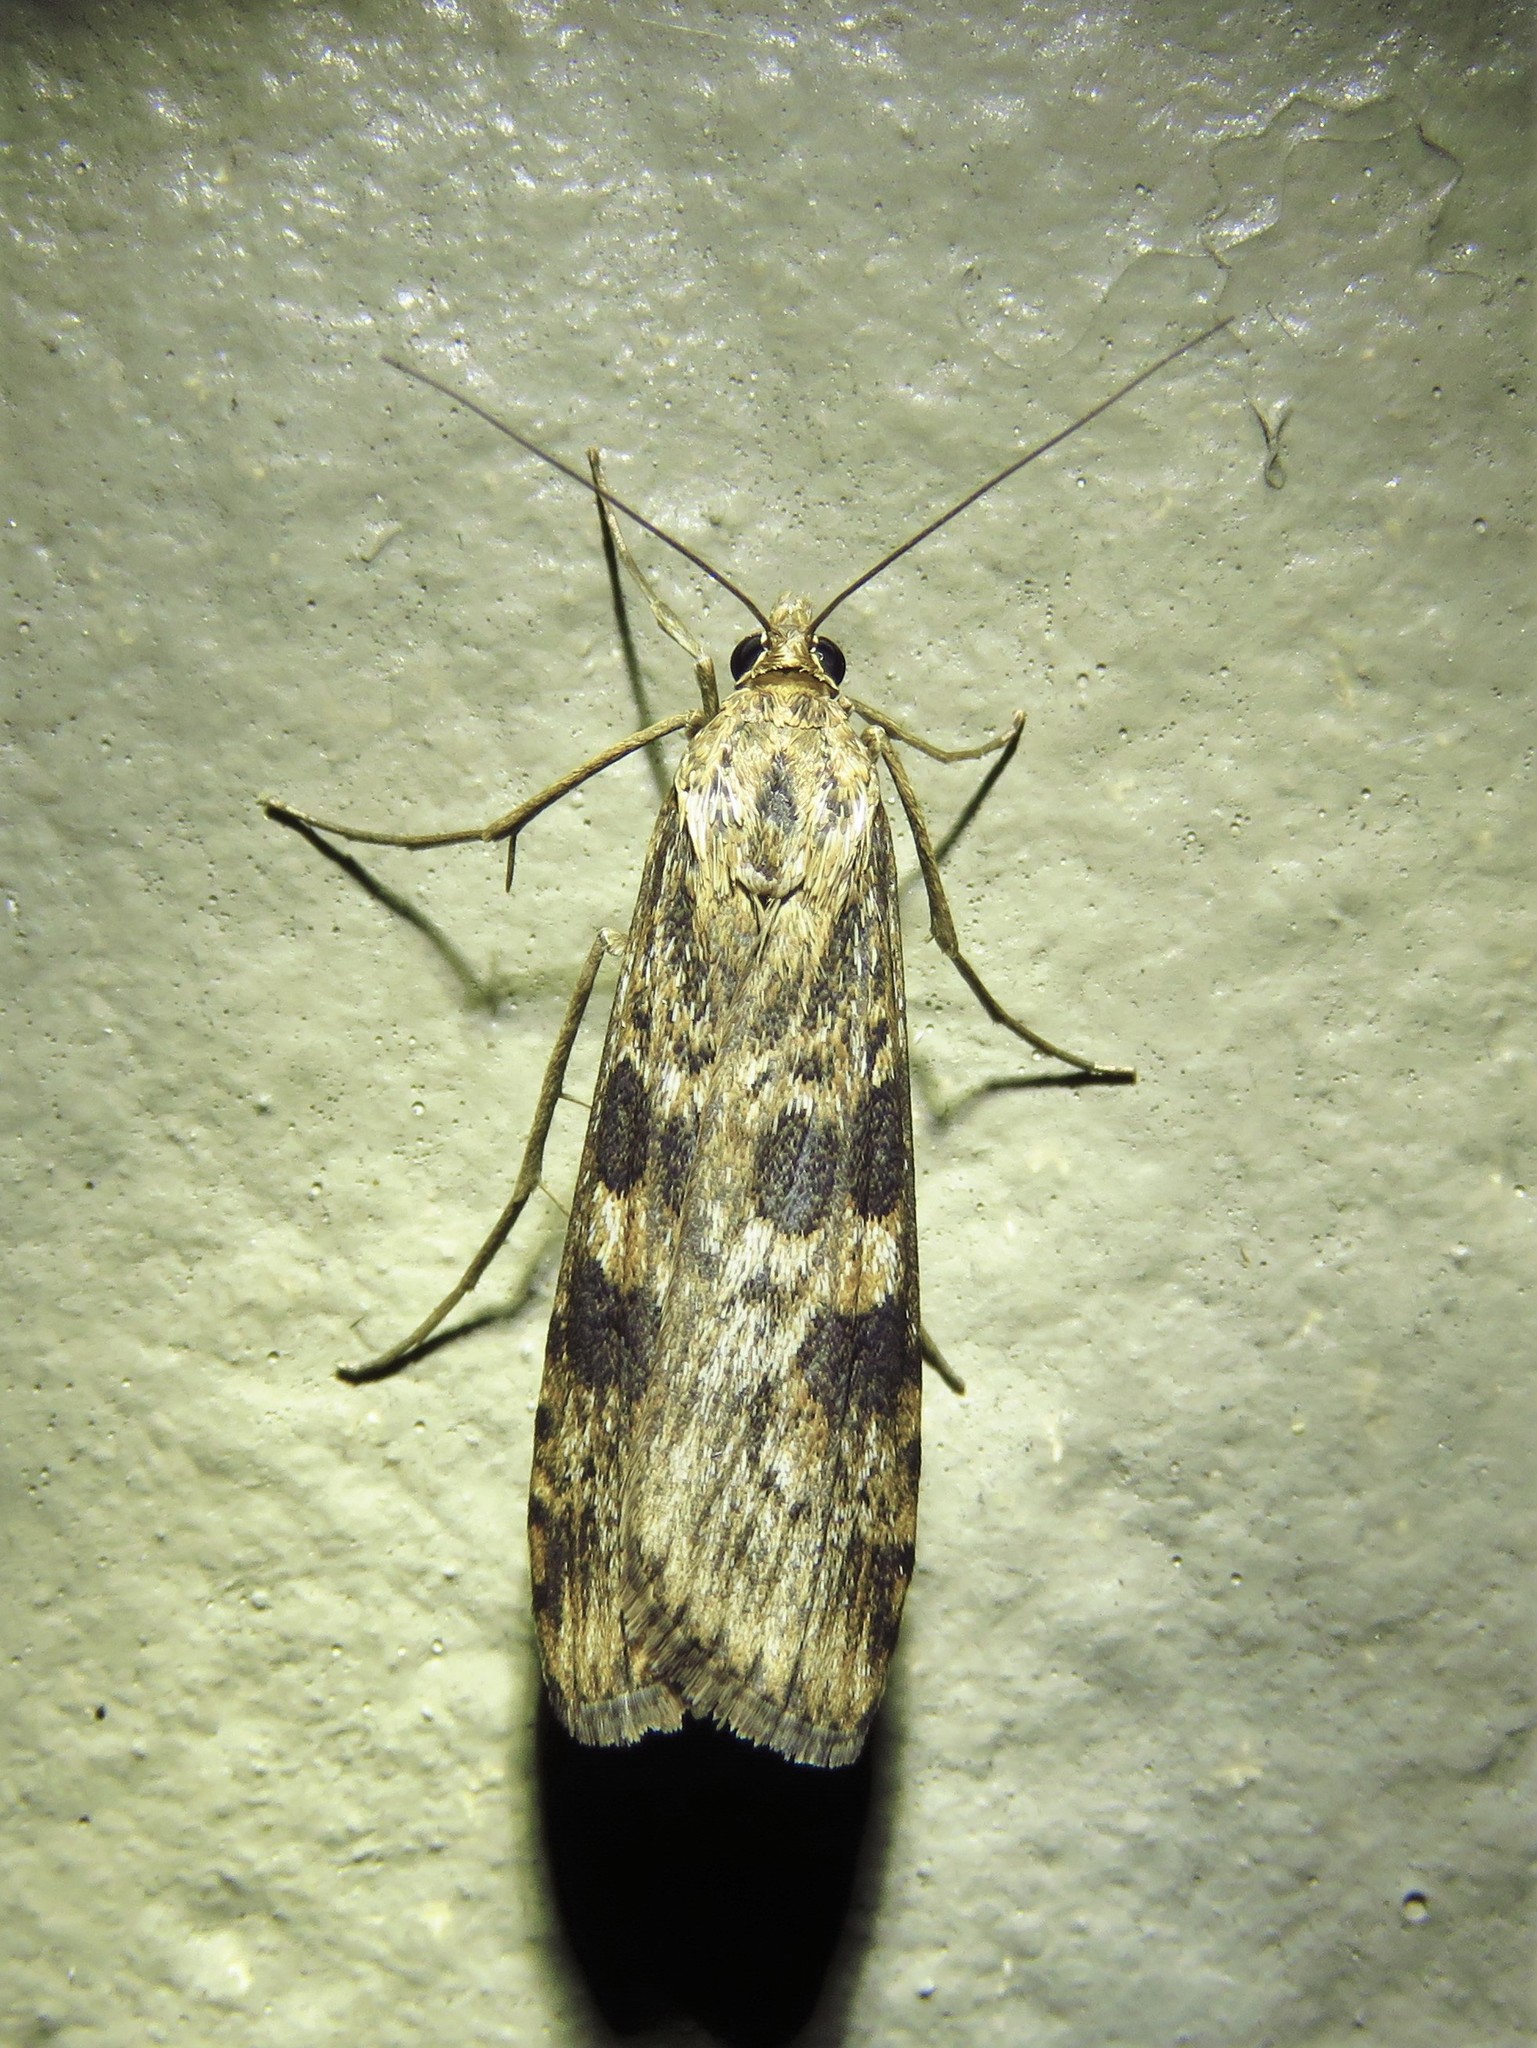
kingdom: Animalia
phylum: Arthropoda
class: Insecta
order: Lepidoptera
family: Crambidae
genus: Nomophila
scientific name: Nomophila nearctica
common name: American rush veneer
